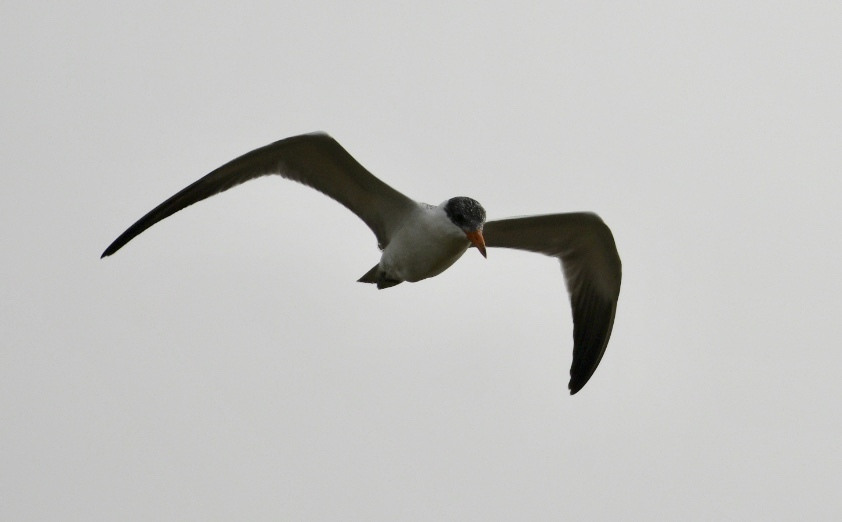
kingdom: Animalia
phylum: Chordata
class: Aves
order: Charadriiformes
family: Laridae
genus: Hydroprogne
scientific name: Hydroprogne caspia
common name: Caspian tern
